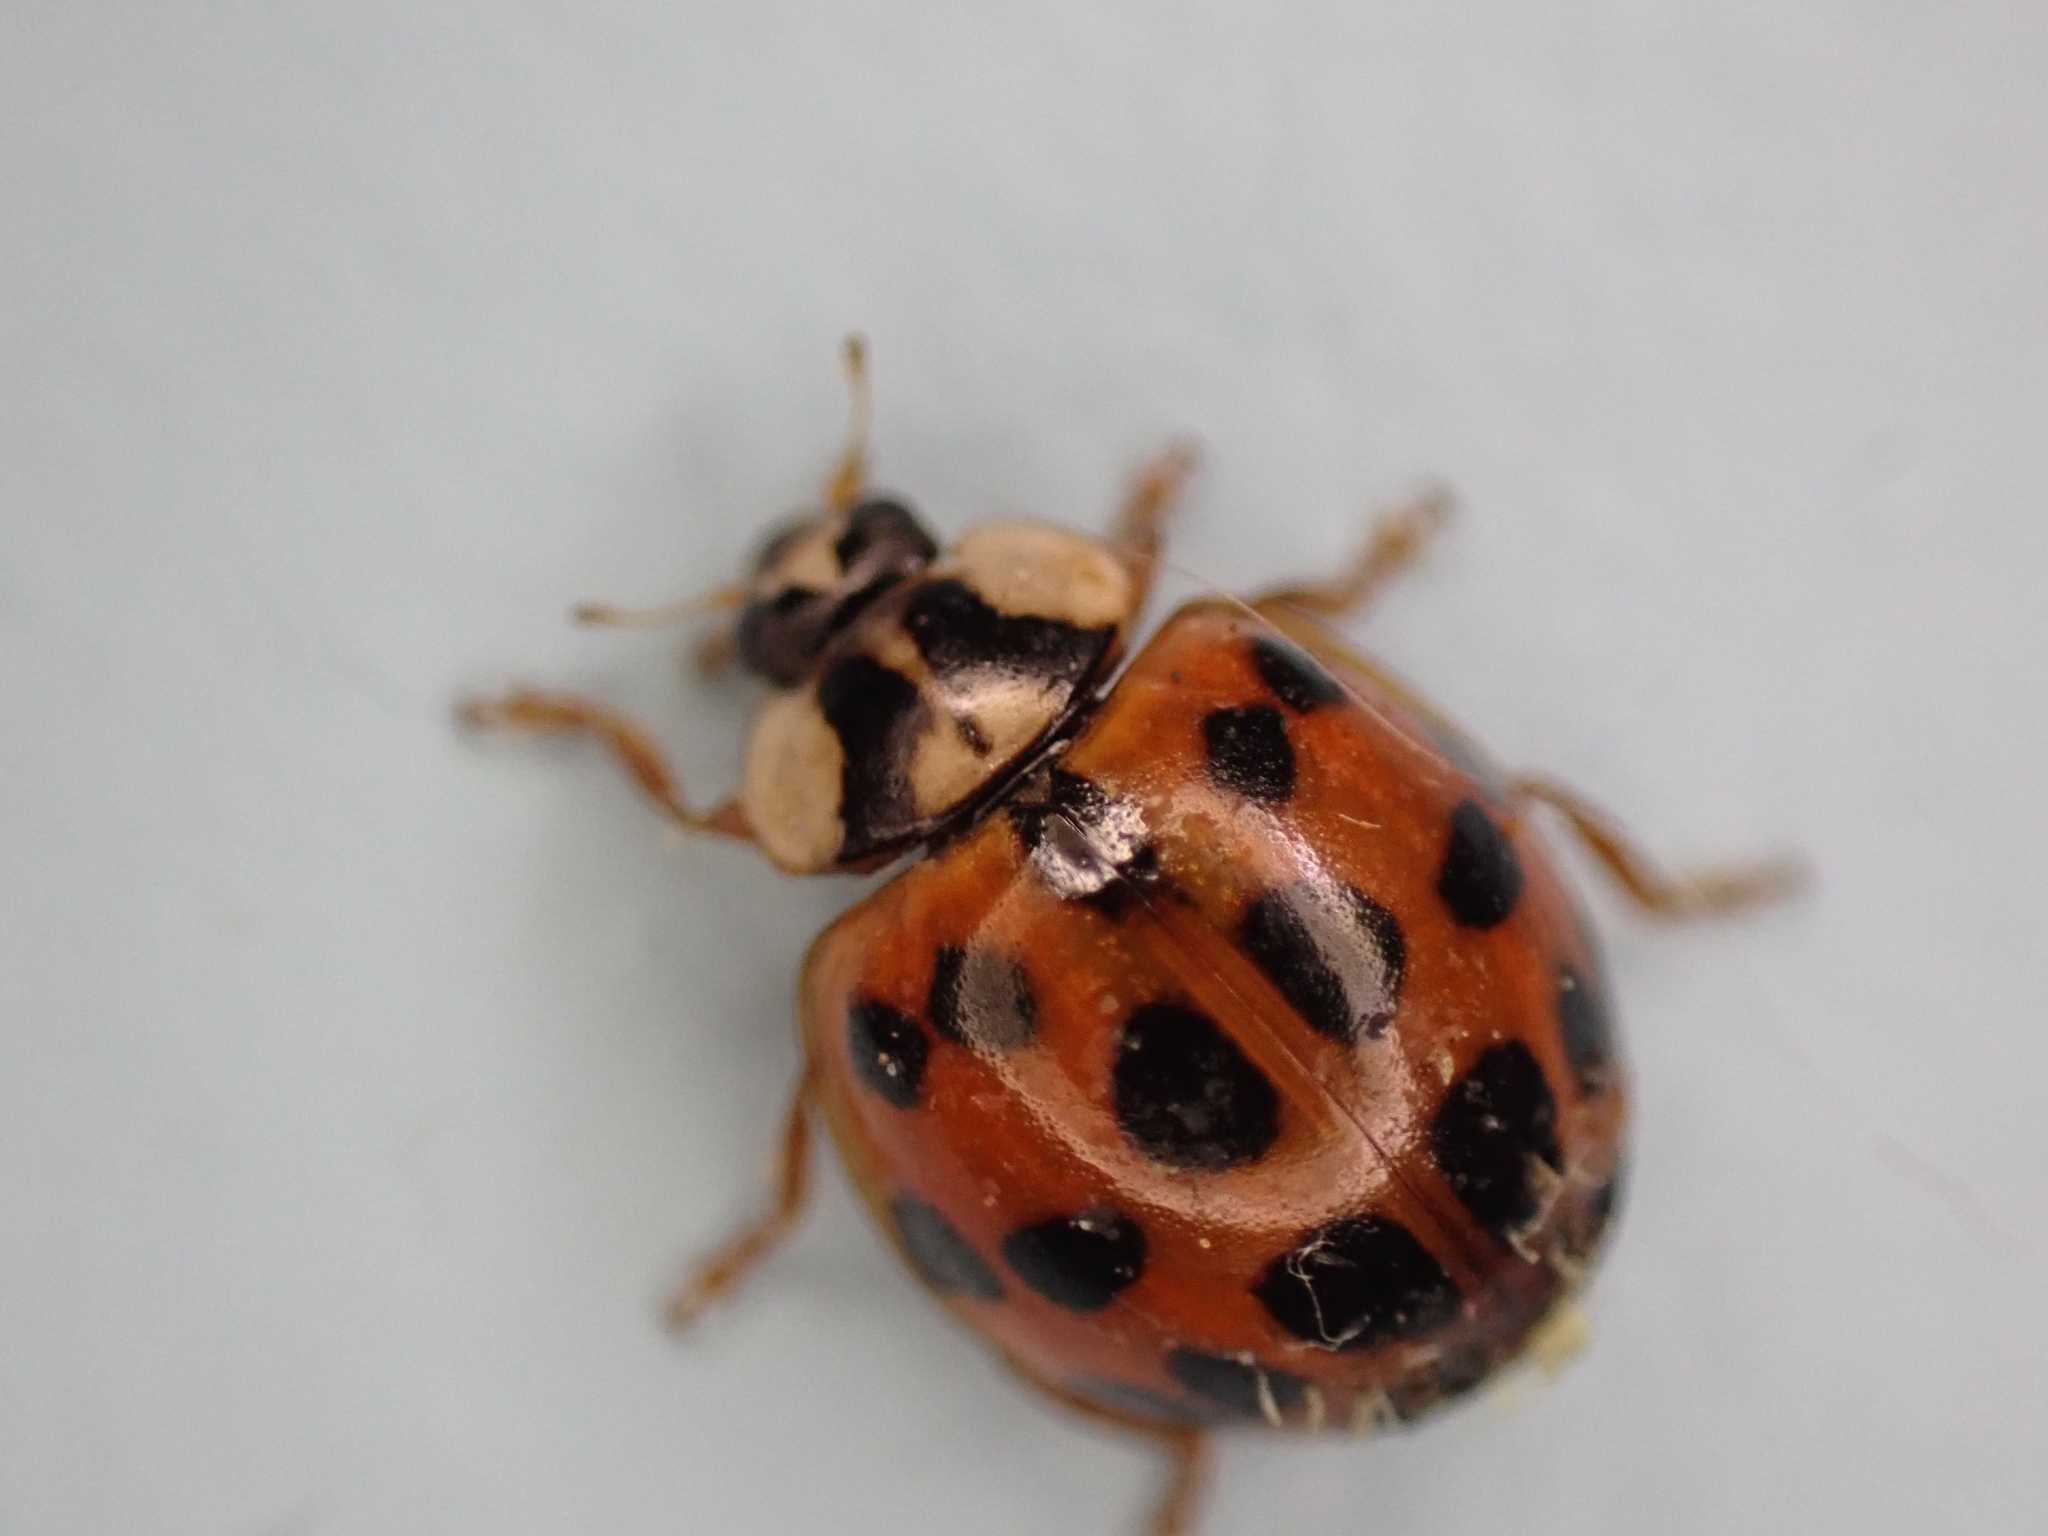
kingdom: Animalia
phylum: Arthropoda
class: Insecta
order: Coleoptera
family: Coccinellidae
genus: Harmonia
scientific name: Harmonia axyridis
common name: Harlequin ladybird
